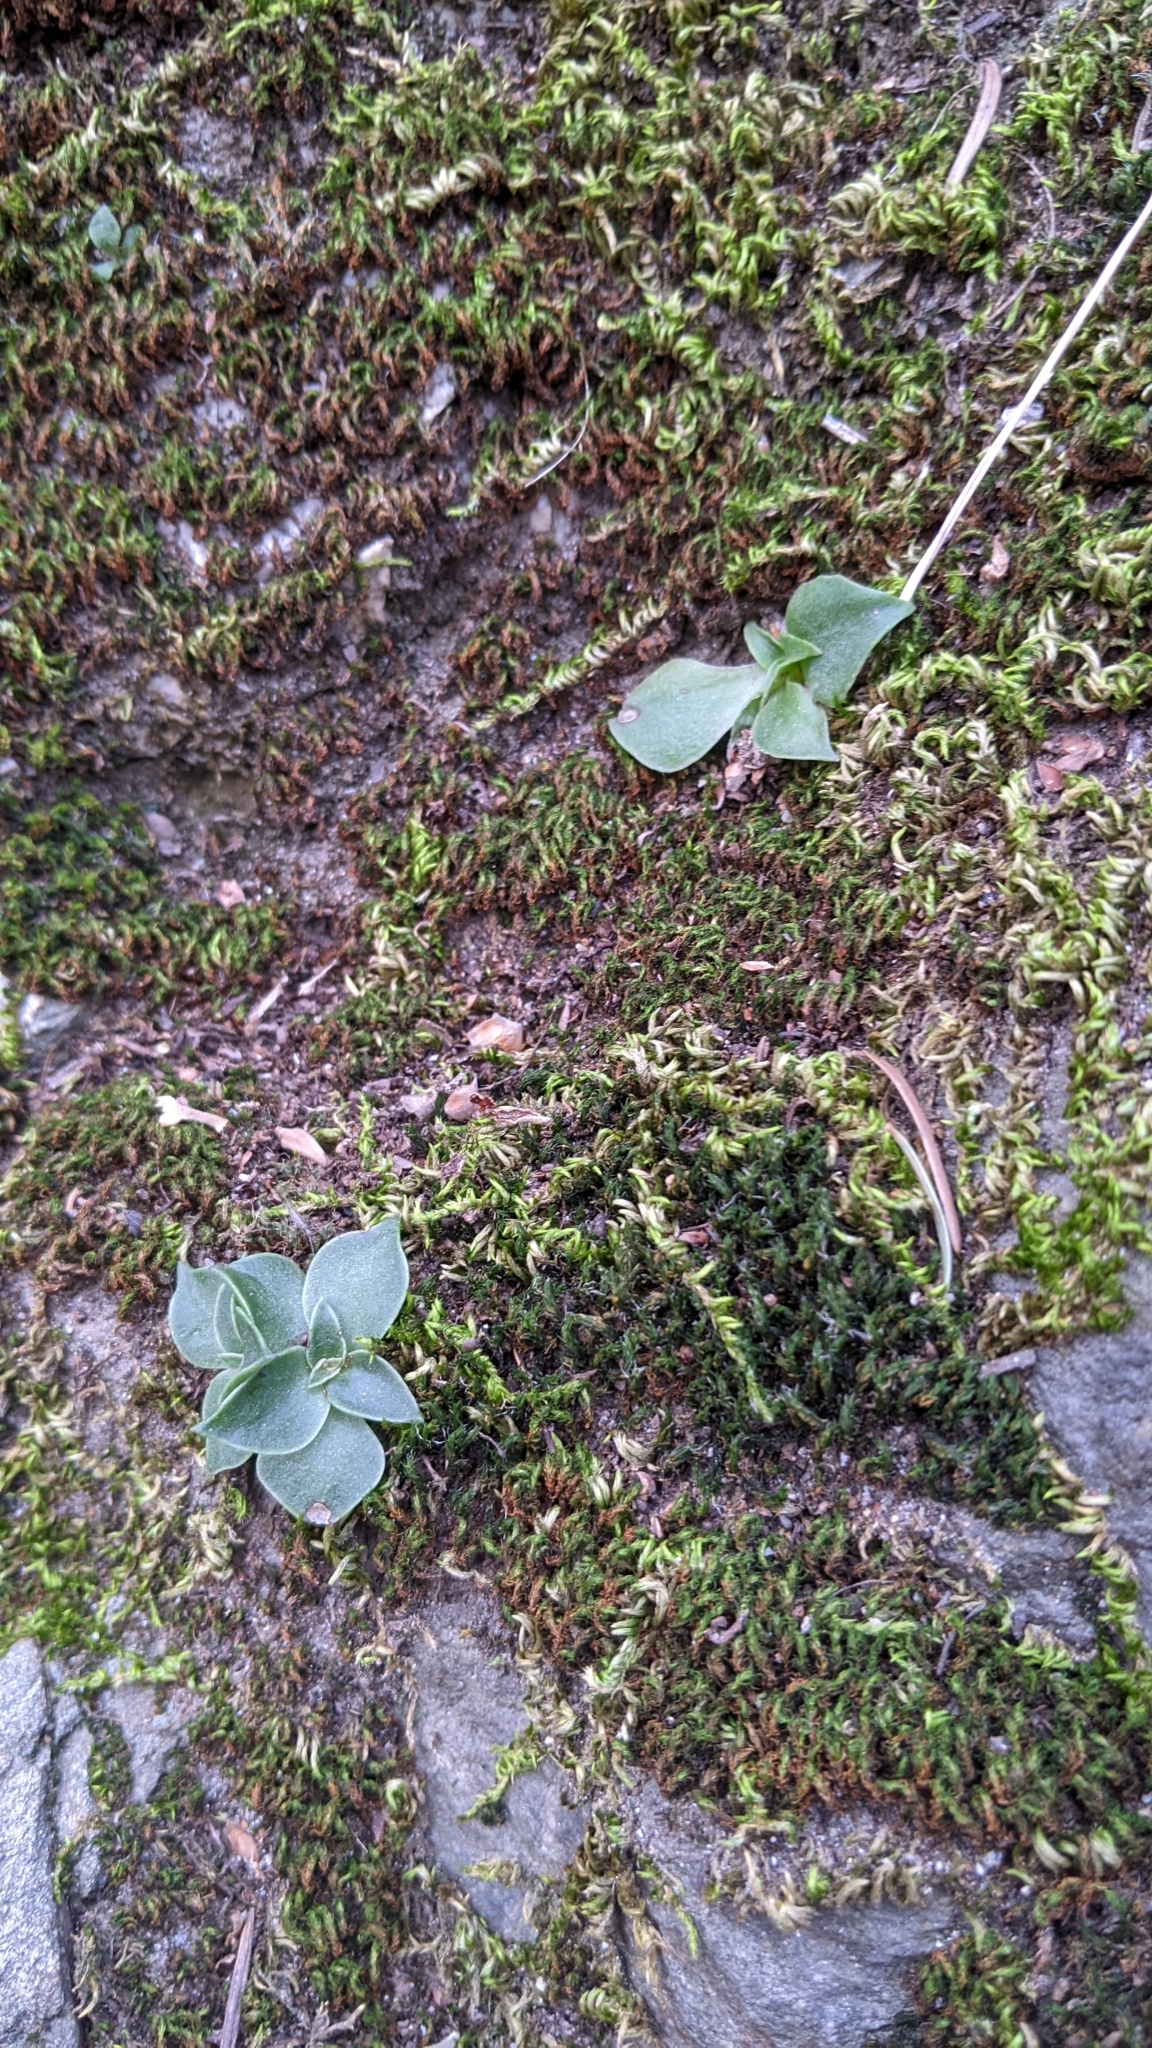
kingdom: Plantae
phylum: Tracheophyta
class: Magnoliopsida
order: Saxifragales
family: Crassulaceae
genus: Dudleya
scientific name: Dudleya cymosa
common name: Canyon dudleya
